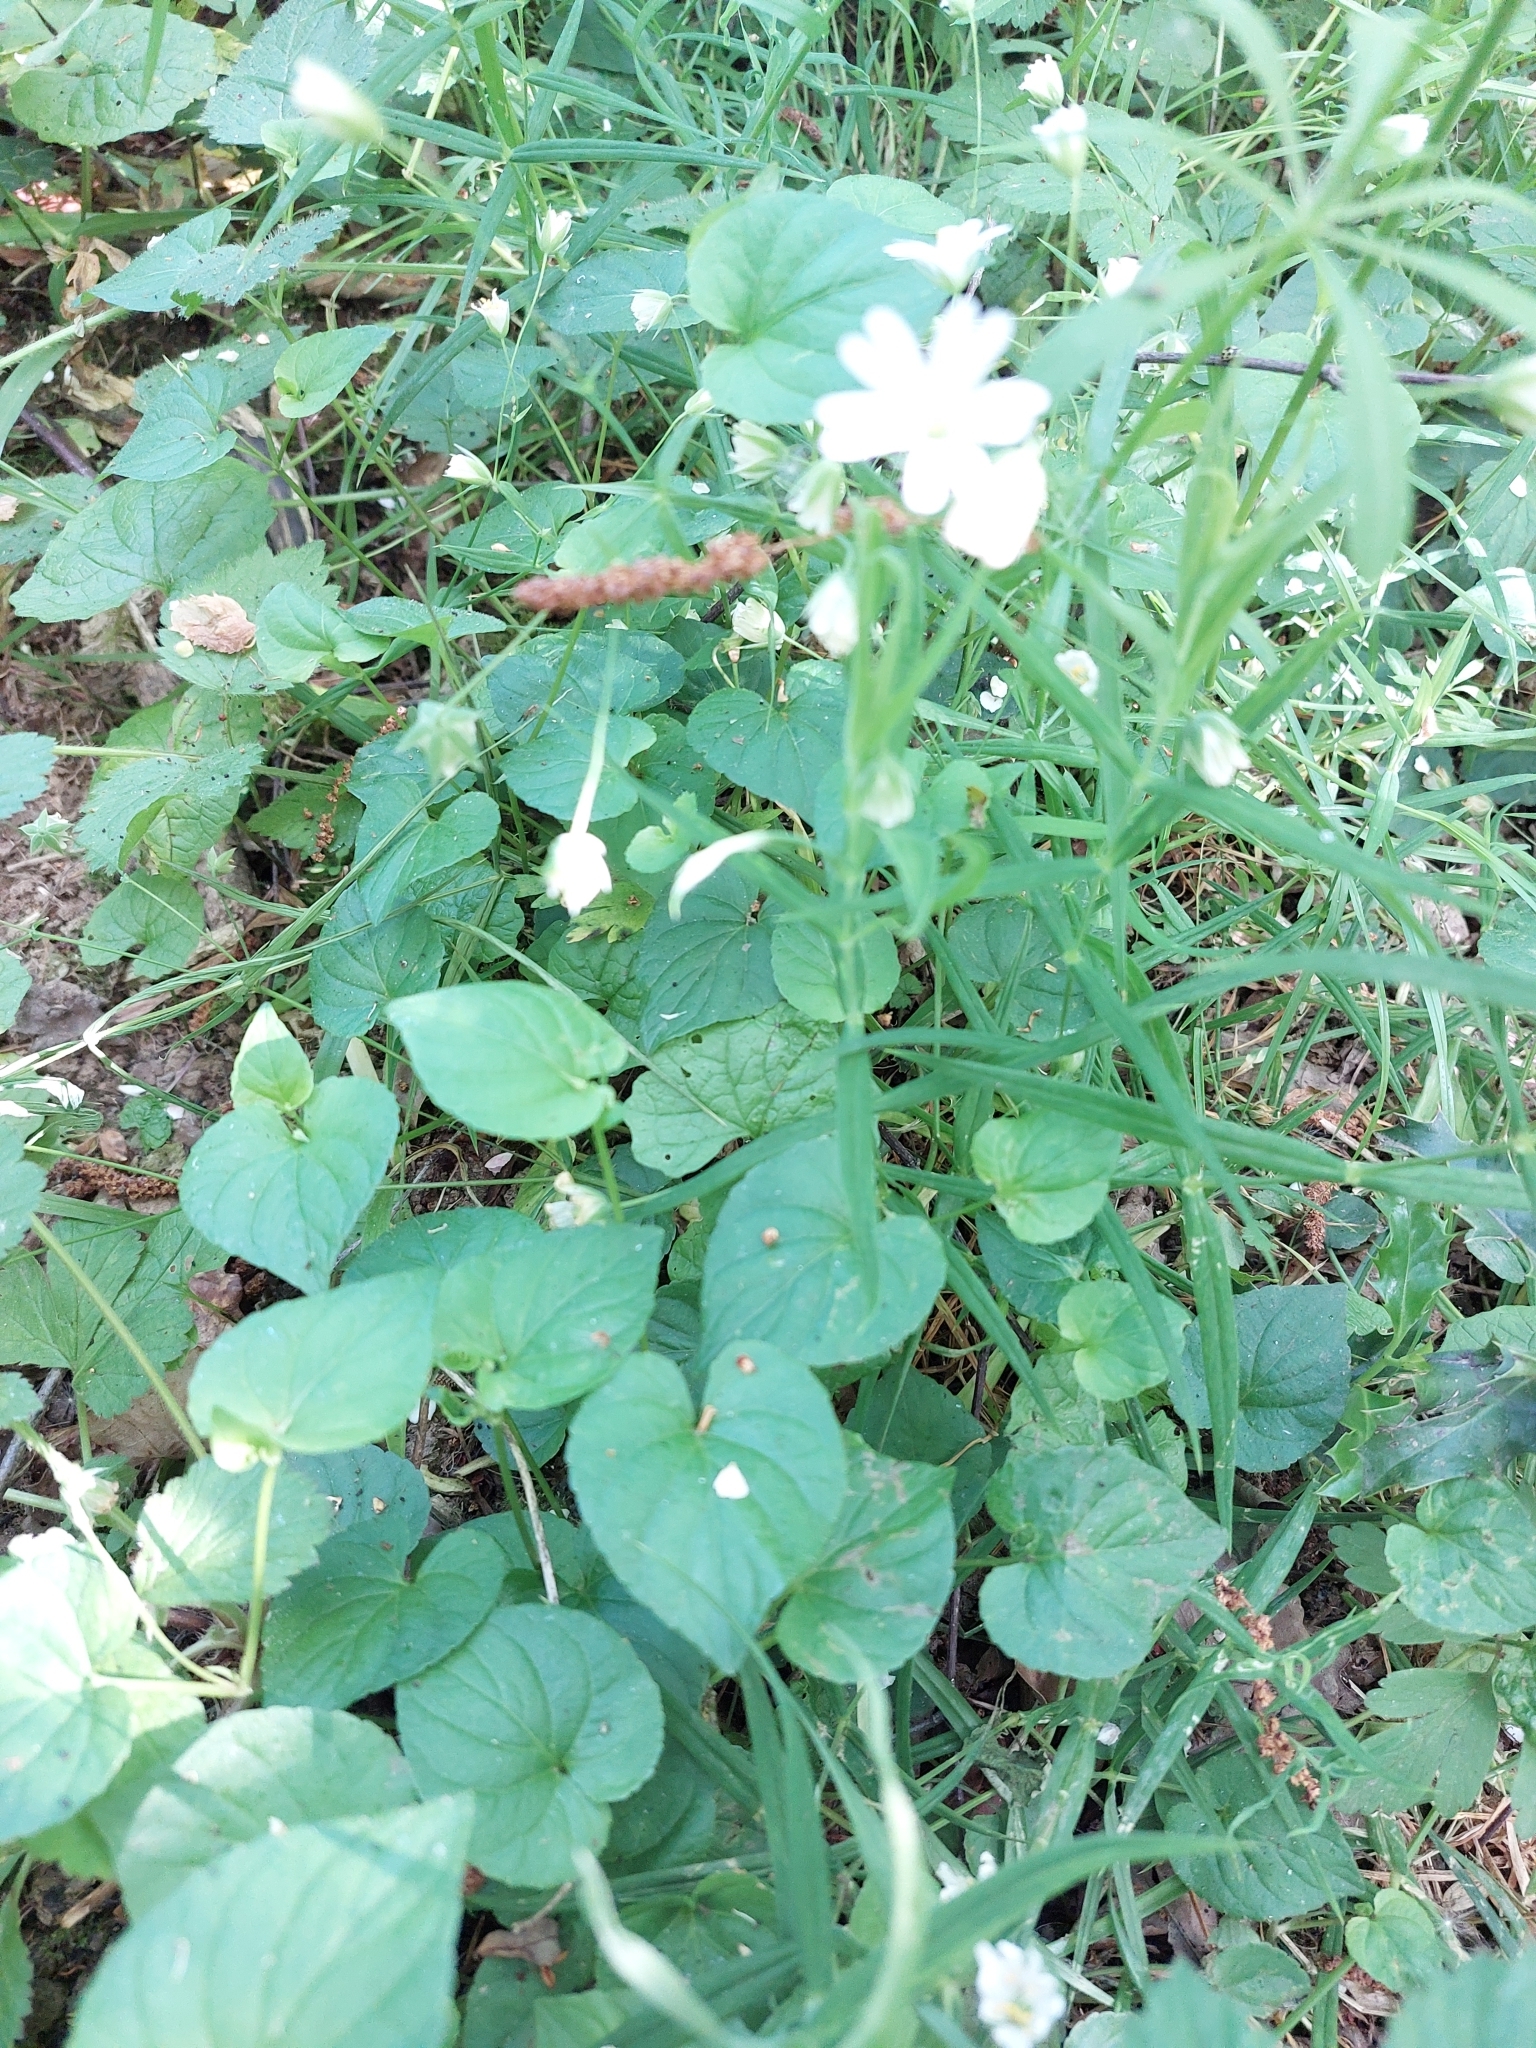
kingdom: Plantae
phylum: Tracheophyta
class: Magnoliopsida
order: Caryophyllales
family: Caryophyllaceae
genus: Rabelera
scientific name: Rabelera holostea
